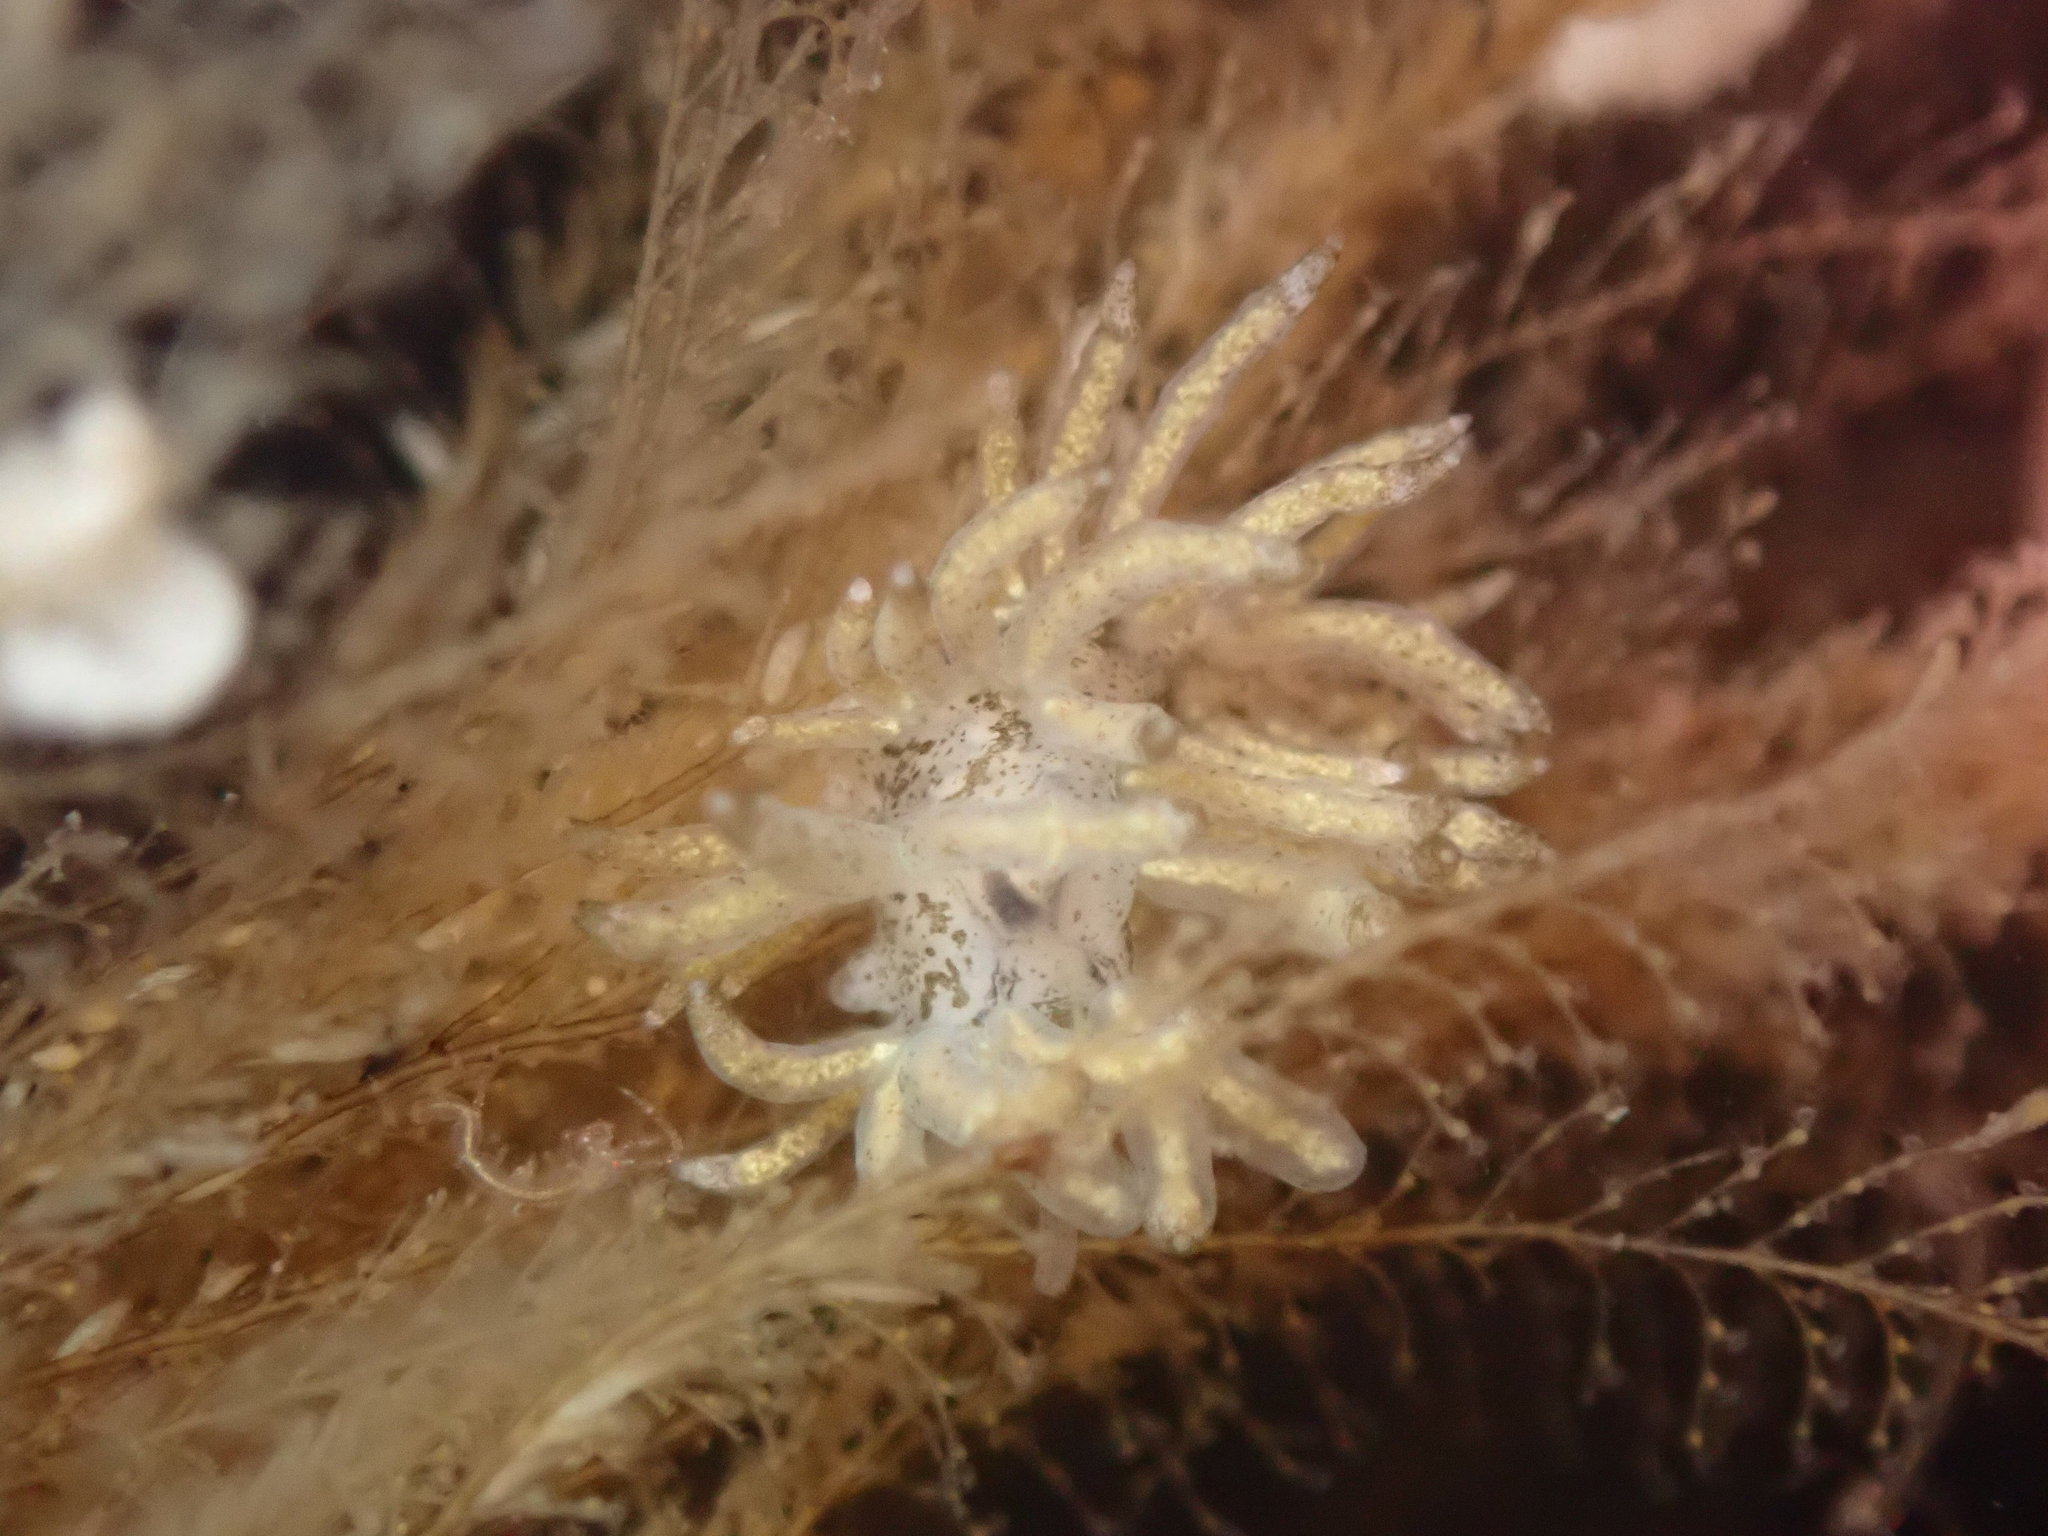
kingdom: Animalia
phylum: Mollusca
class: Gastropoda
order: Nudibranchia
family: Eubranchidae
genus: Eubranchus
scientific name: Eubranchus rustyus
